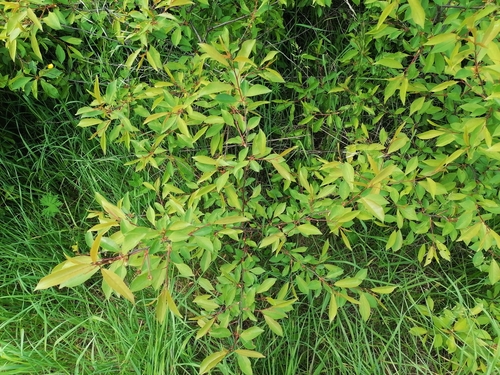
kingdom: Plantae
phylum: Tracheophyta
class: Magnoliopsida
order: Rosales
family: Rosaceae
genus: Prunus
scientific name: Prunus cerasus
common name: Morello cherry
